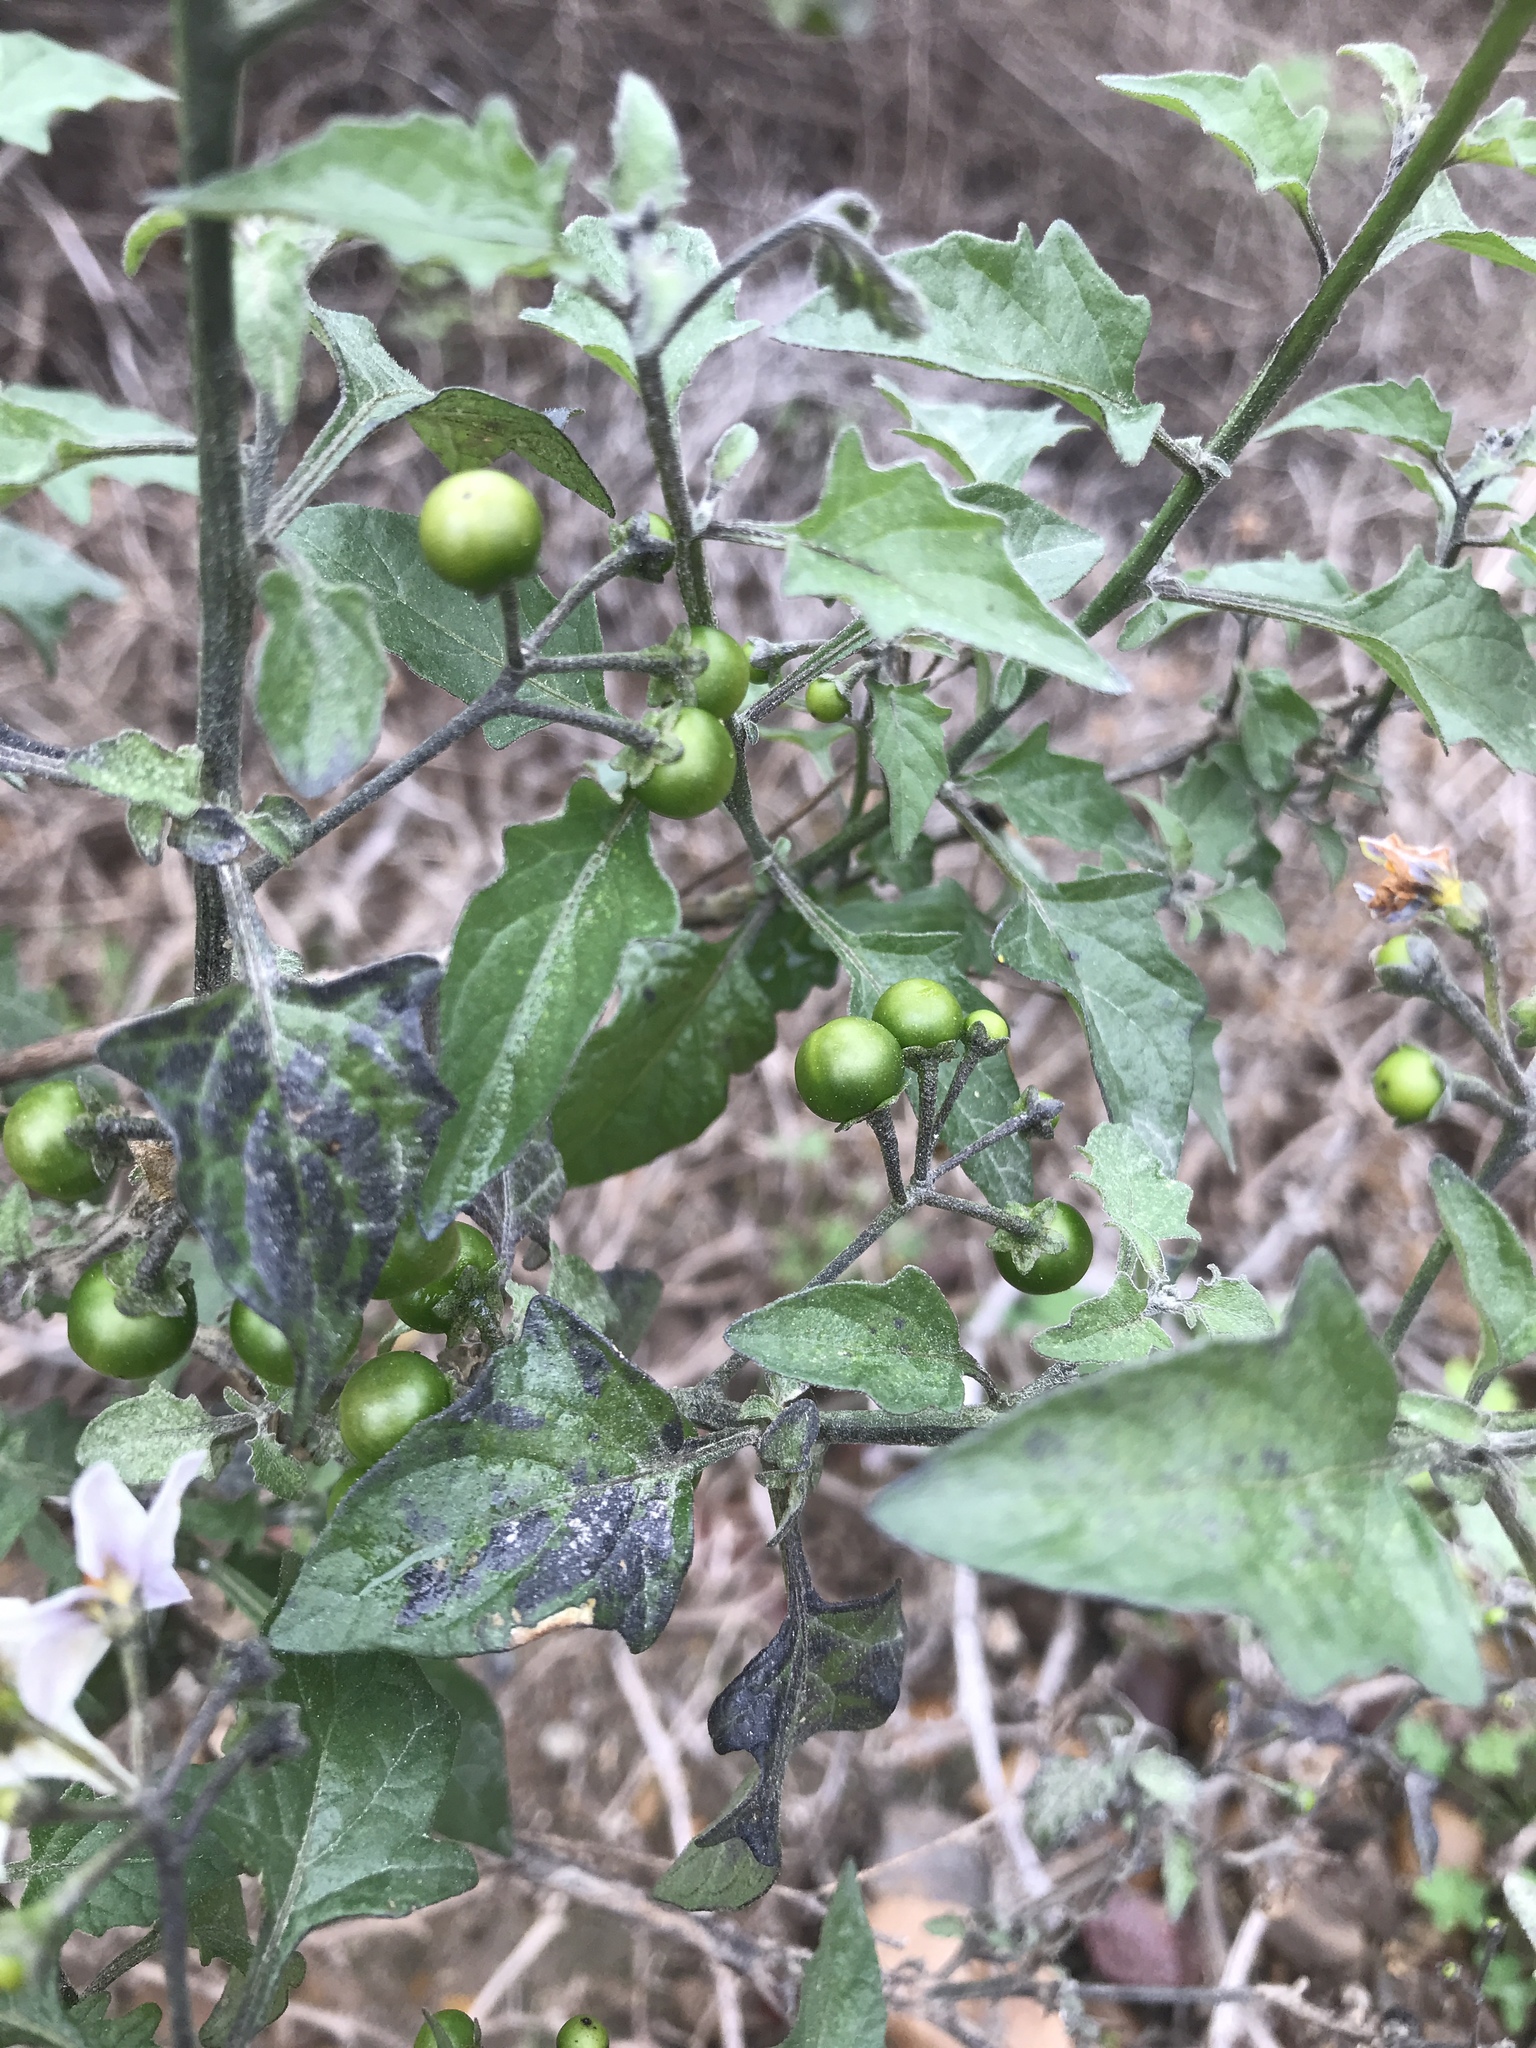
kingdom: Plantae
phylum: Tracheophyta
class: Magnoliopsida
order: Solanales
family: Solanaceae
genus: Solanum
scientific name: Solanum douglasii
